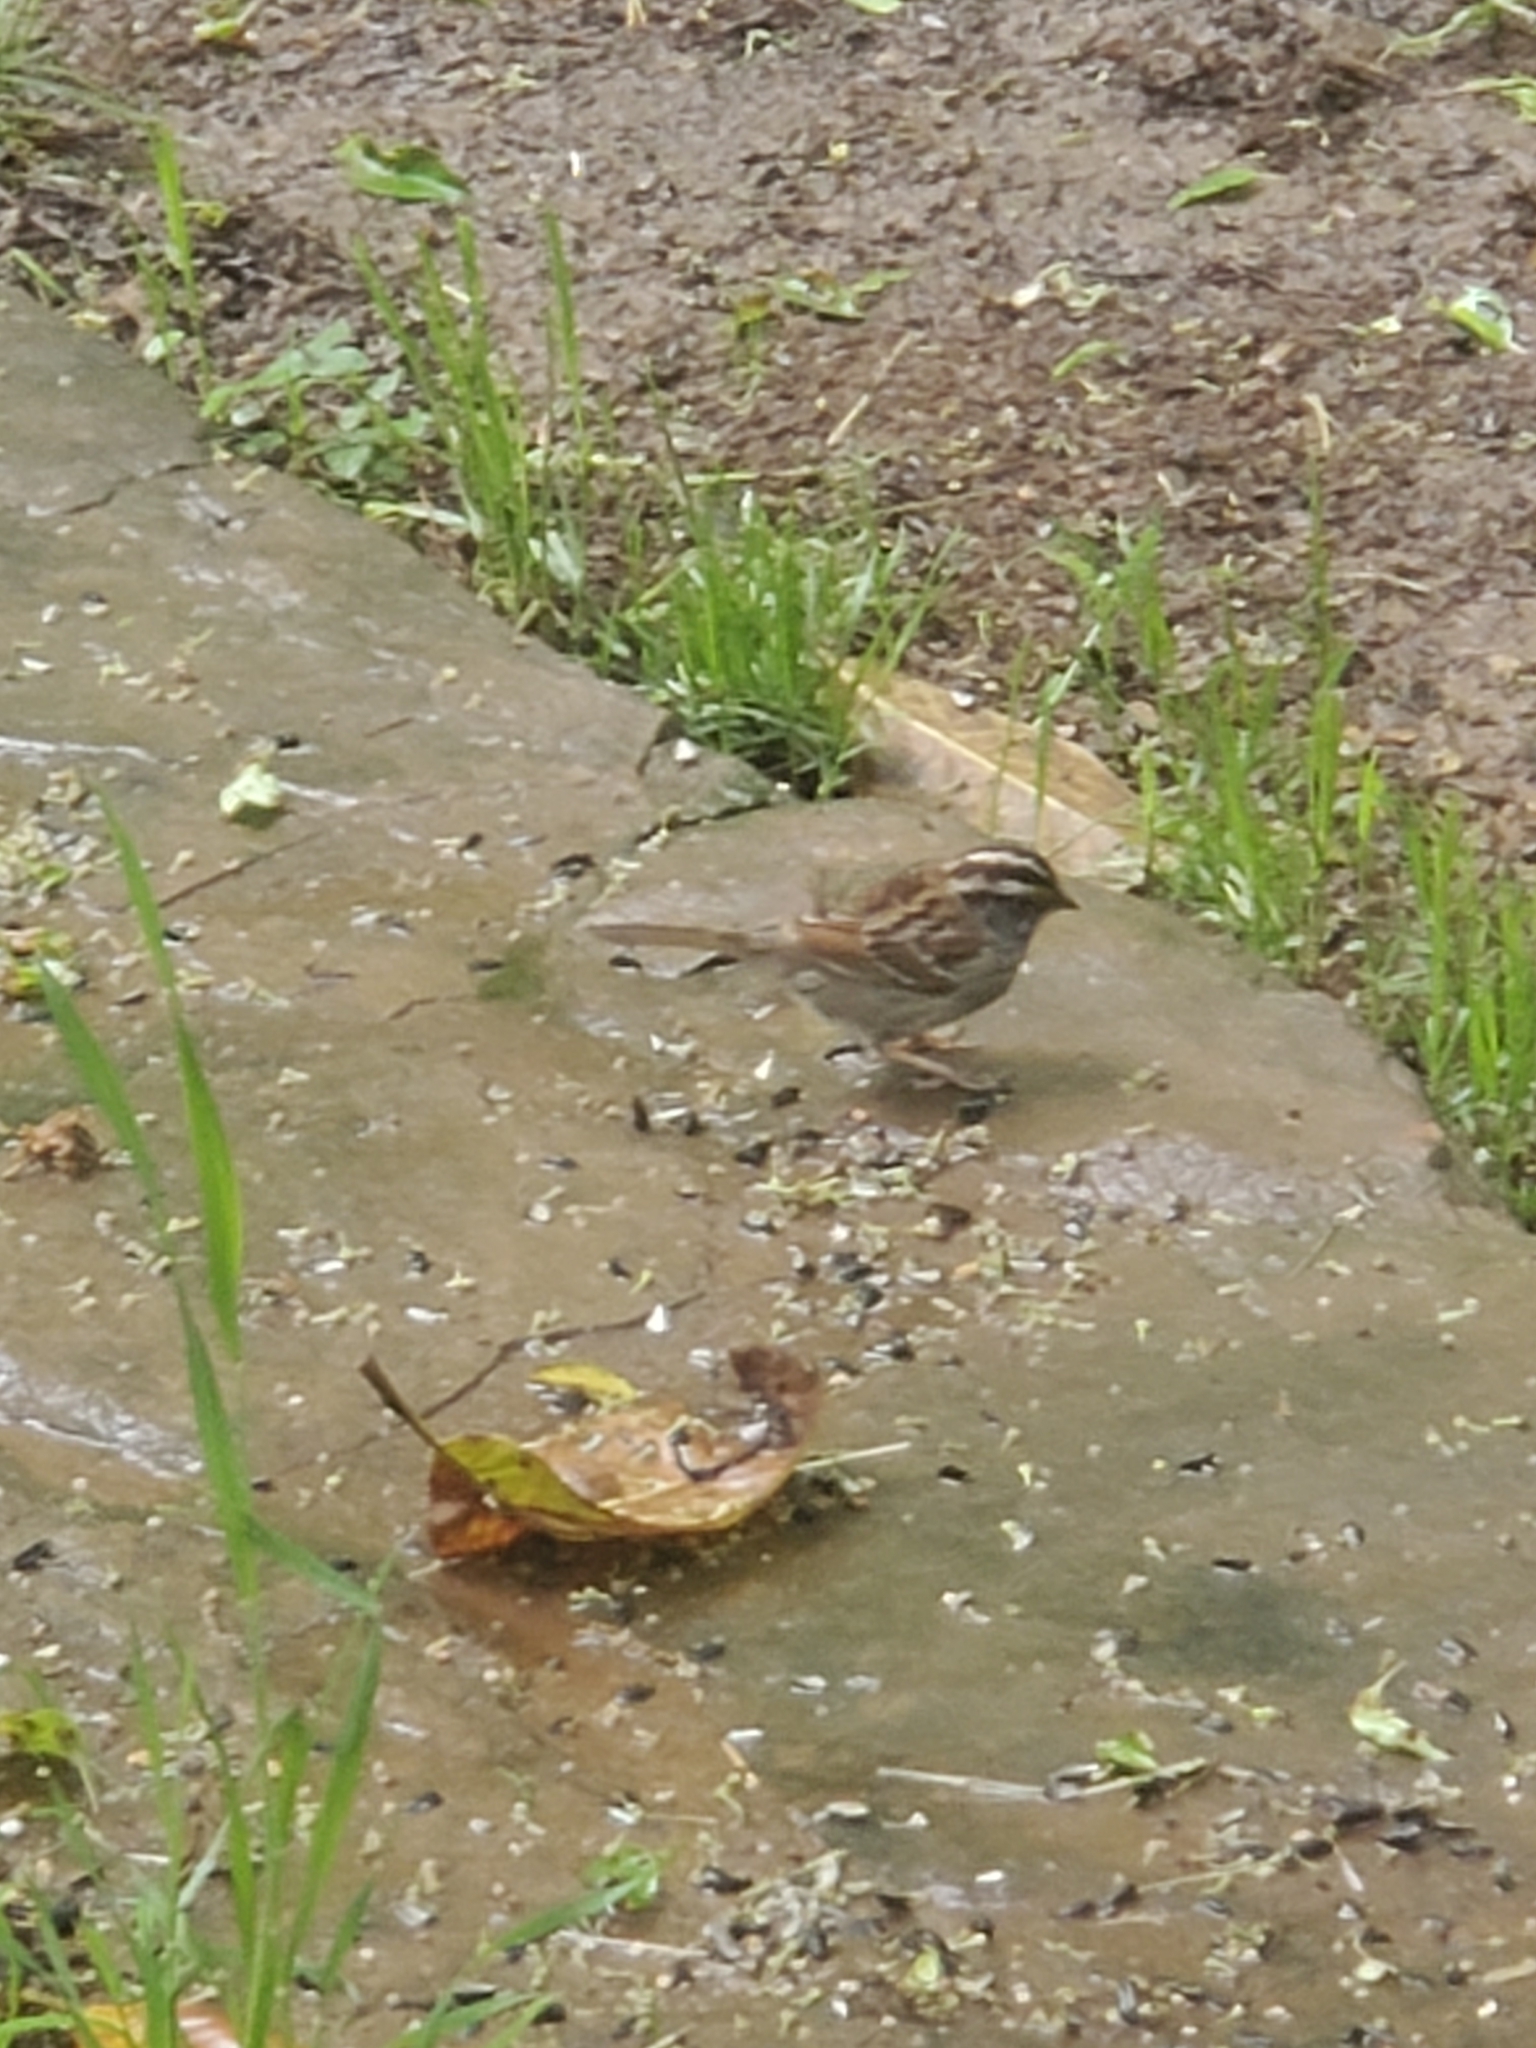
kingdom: Animalia
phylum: Chordata
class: Aves
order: Passeriformes
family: Passerellidae
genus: Zonotrichia
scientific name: Zonotrichia albicollis
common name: White-throated sparrow
